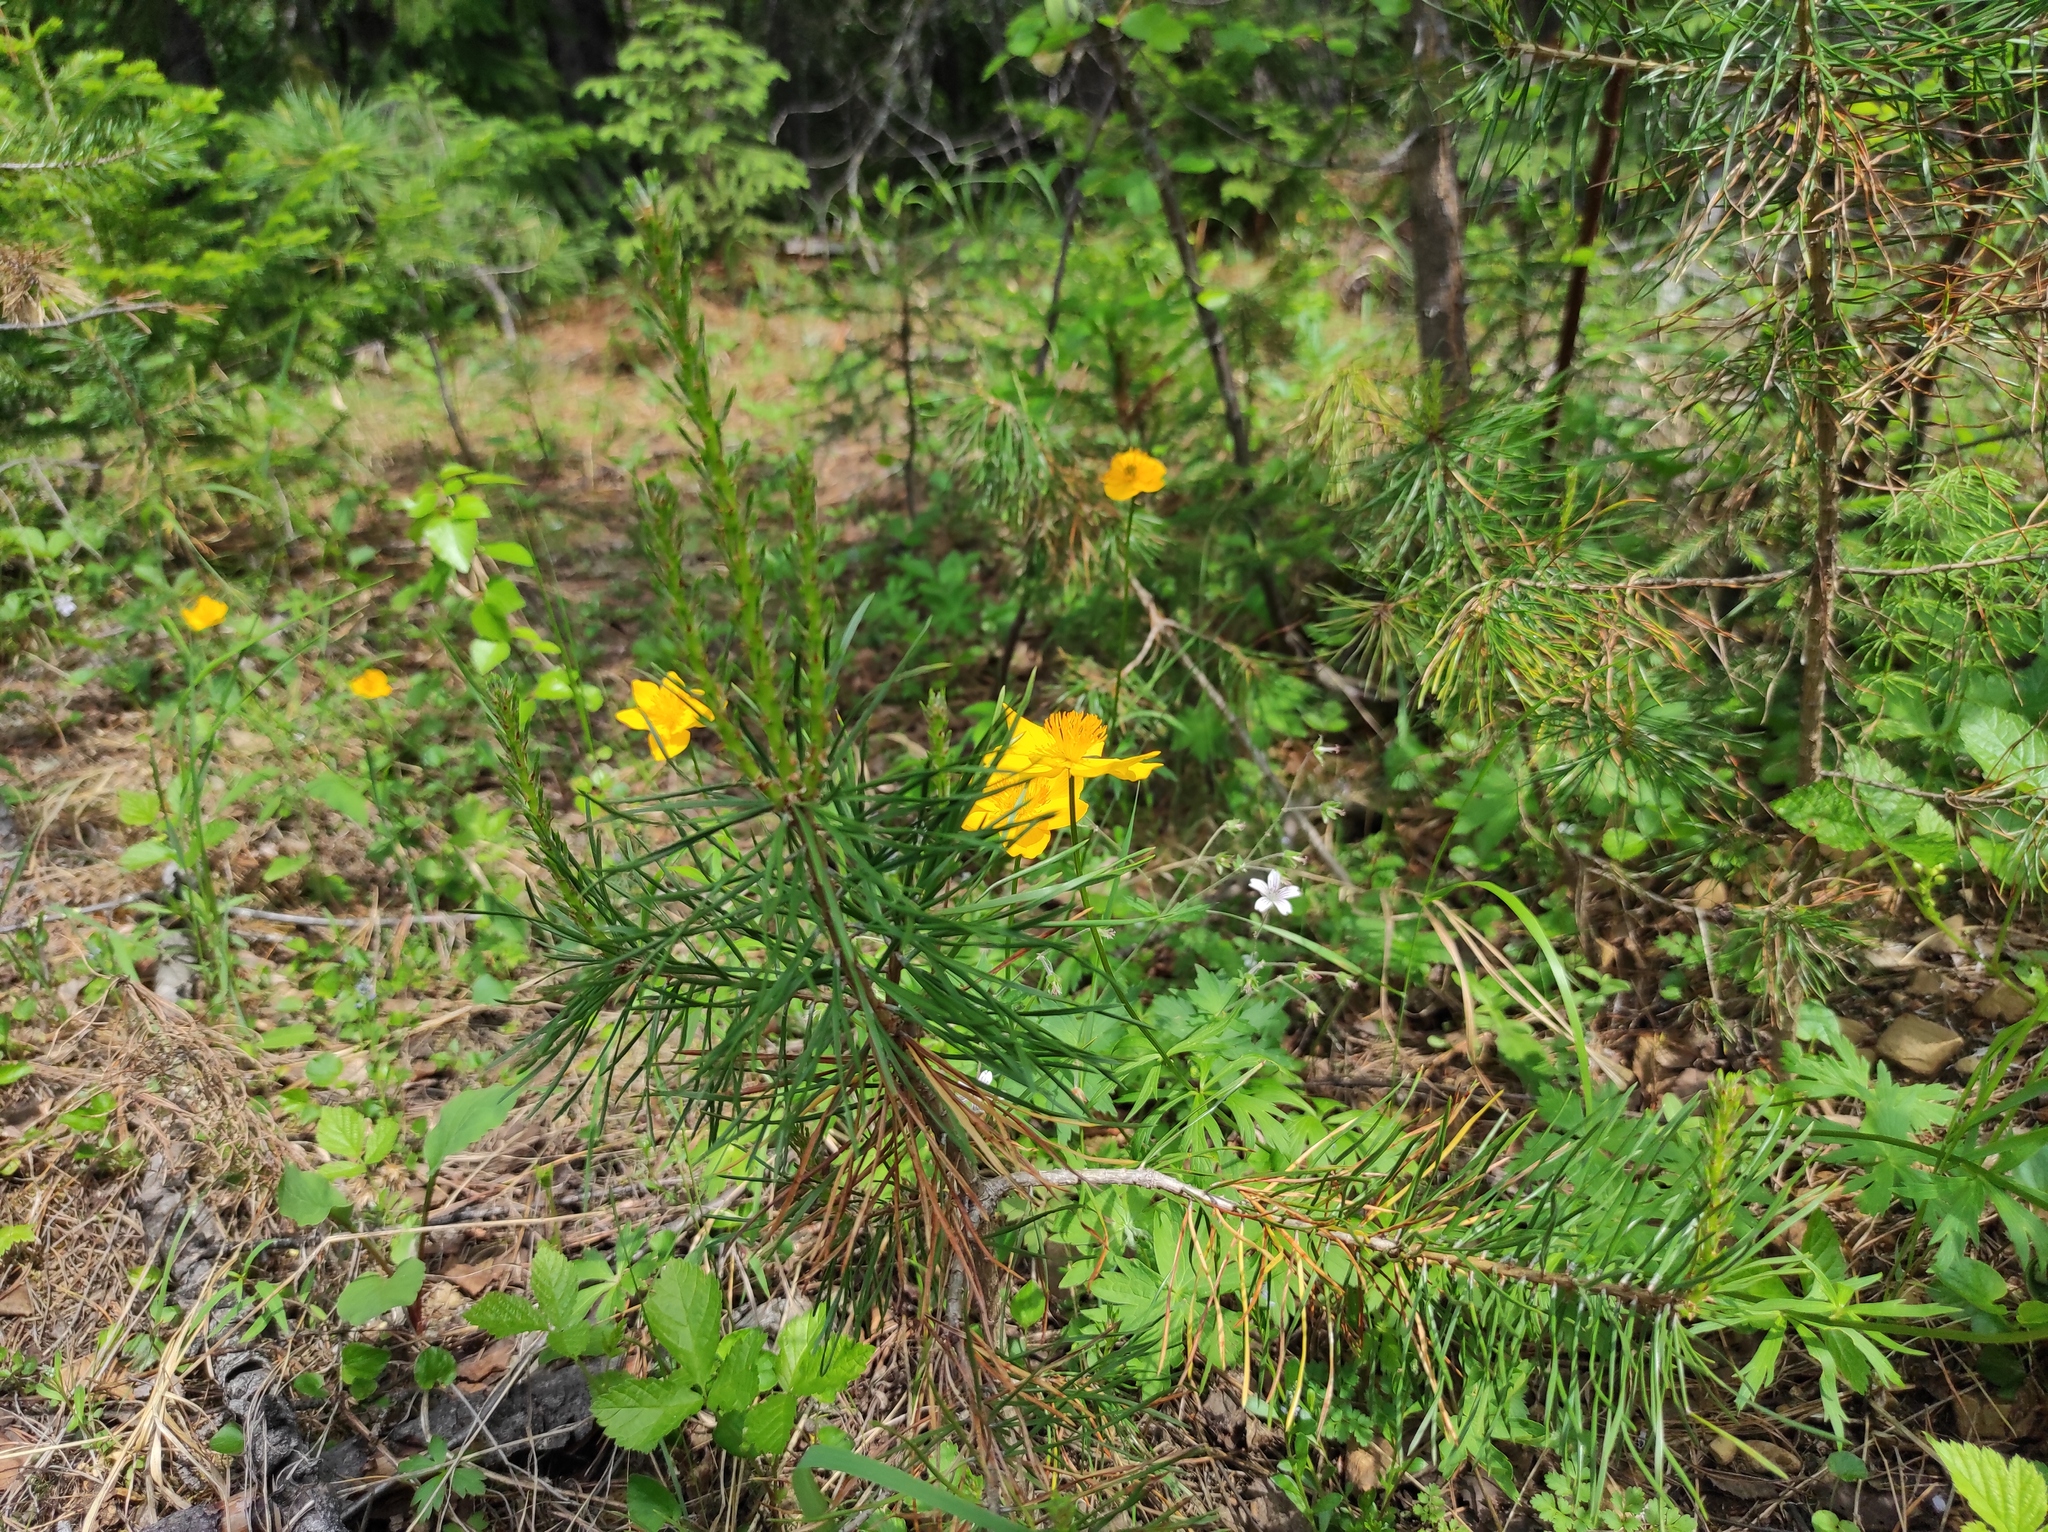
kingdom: Plantae
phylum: Tracheophyta
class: Pinopsida
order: Pinales
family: Pinaceae
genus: Pinus
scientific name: Pinus sylvestris
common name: Scots pine
